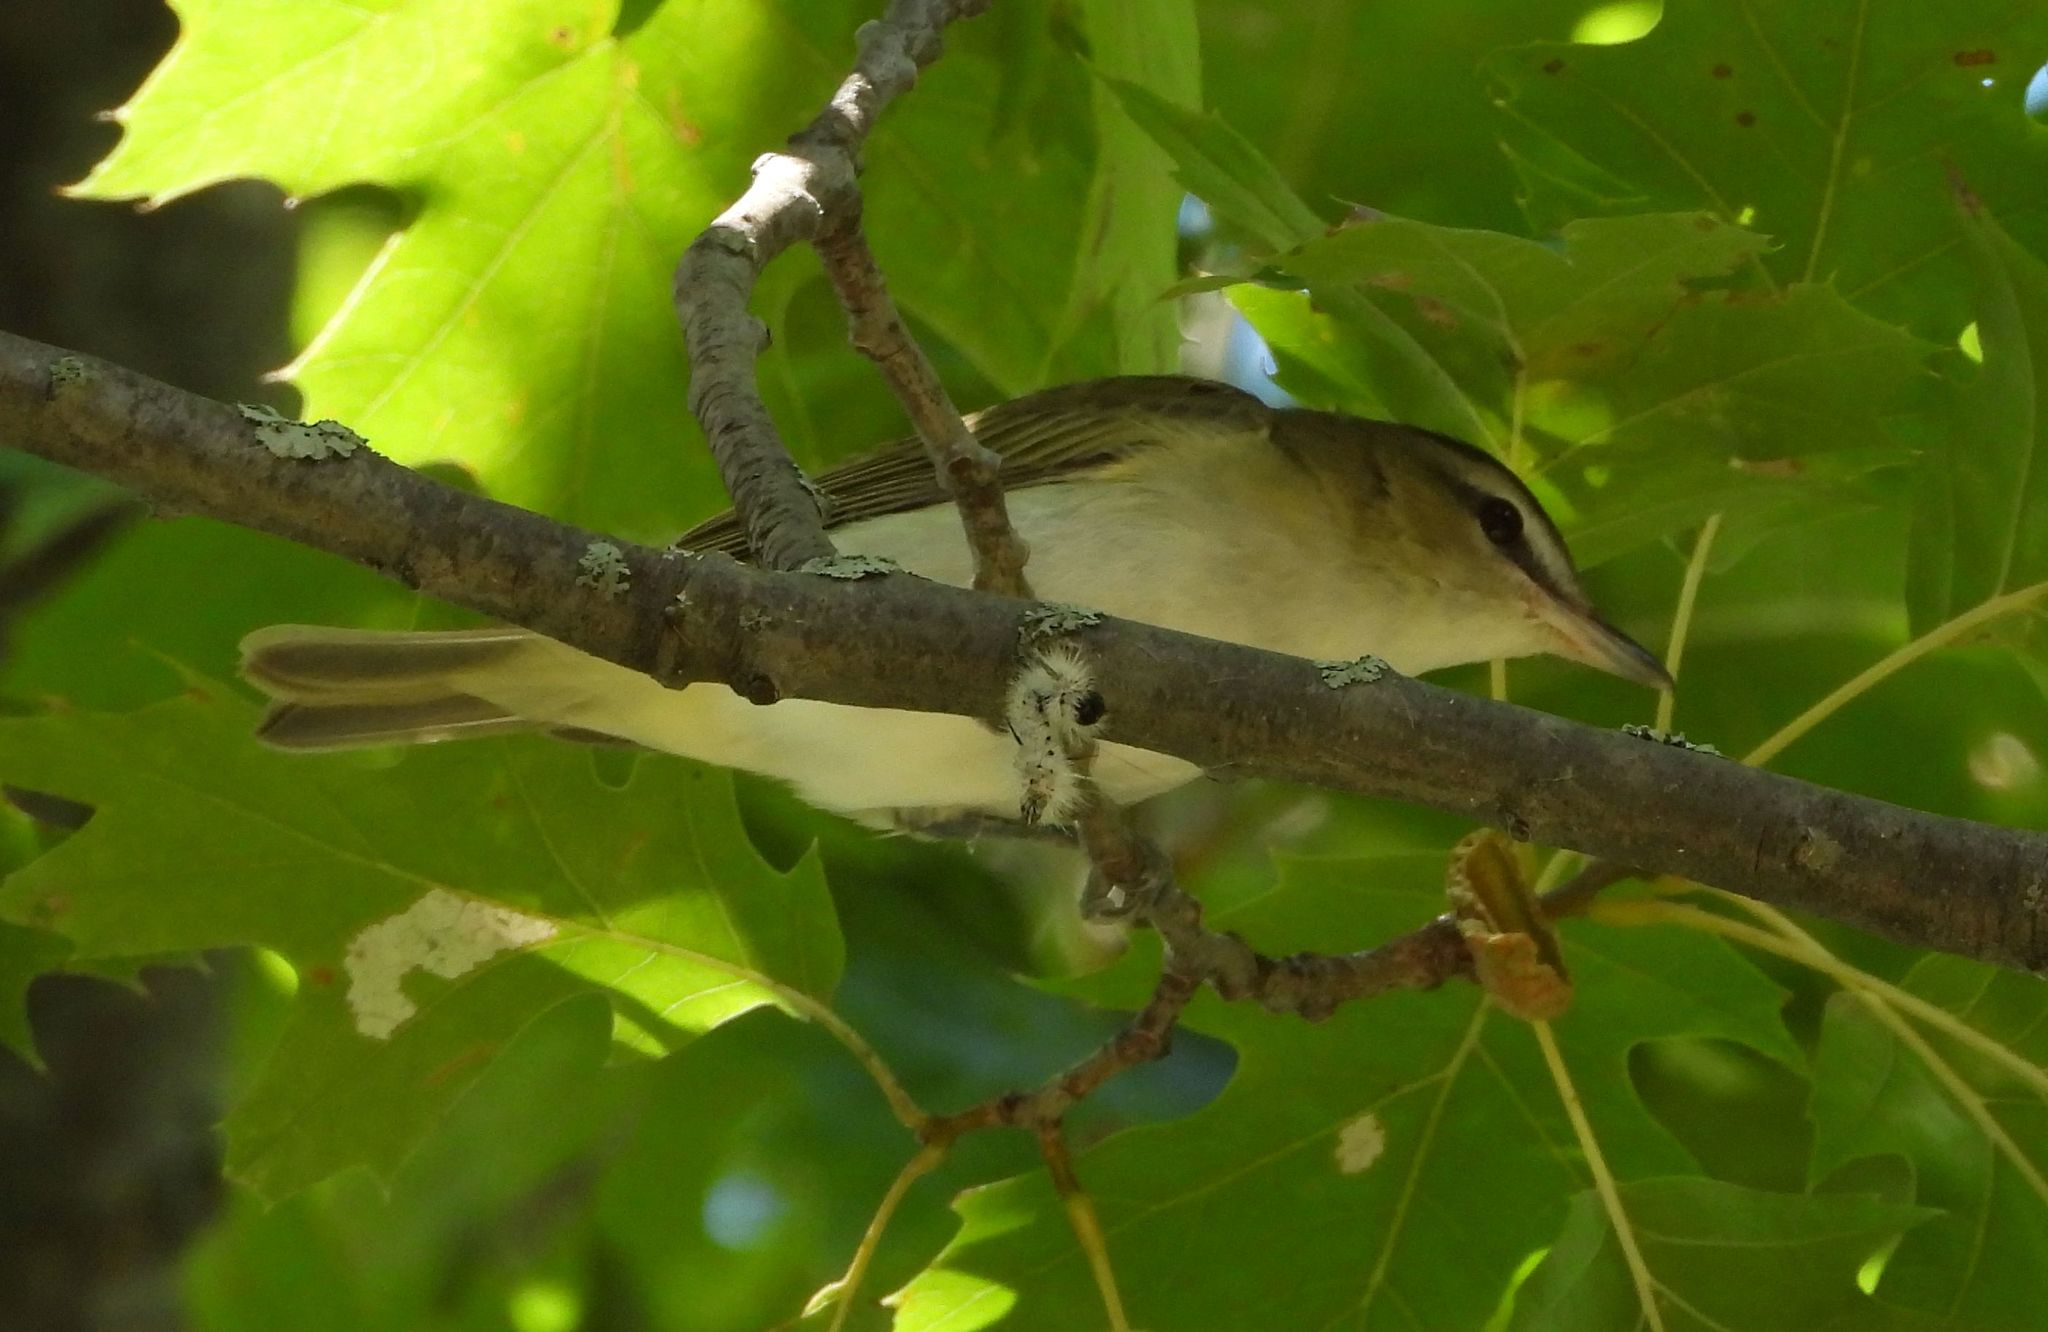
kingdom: Animalia
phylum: Chordata
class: Aves
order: Passeriformes
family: Vireonidae
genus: Vireo
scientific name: Vireo olivaceus
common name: Red-eyed vireo
